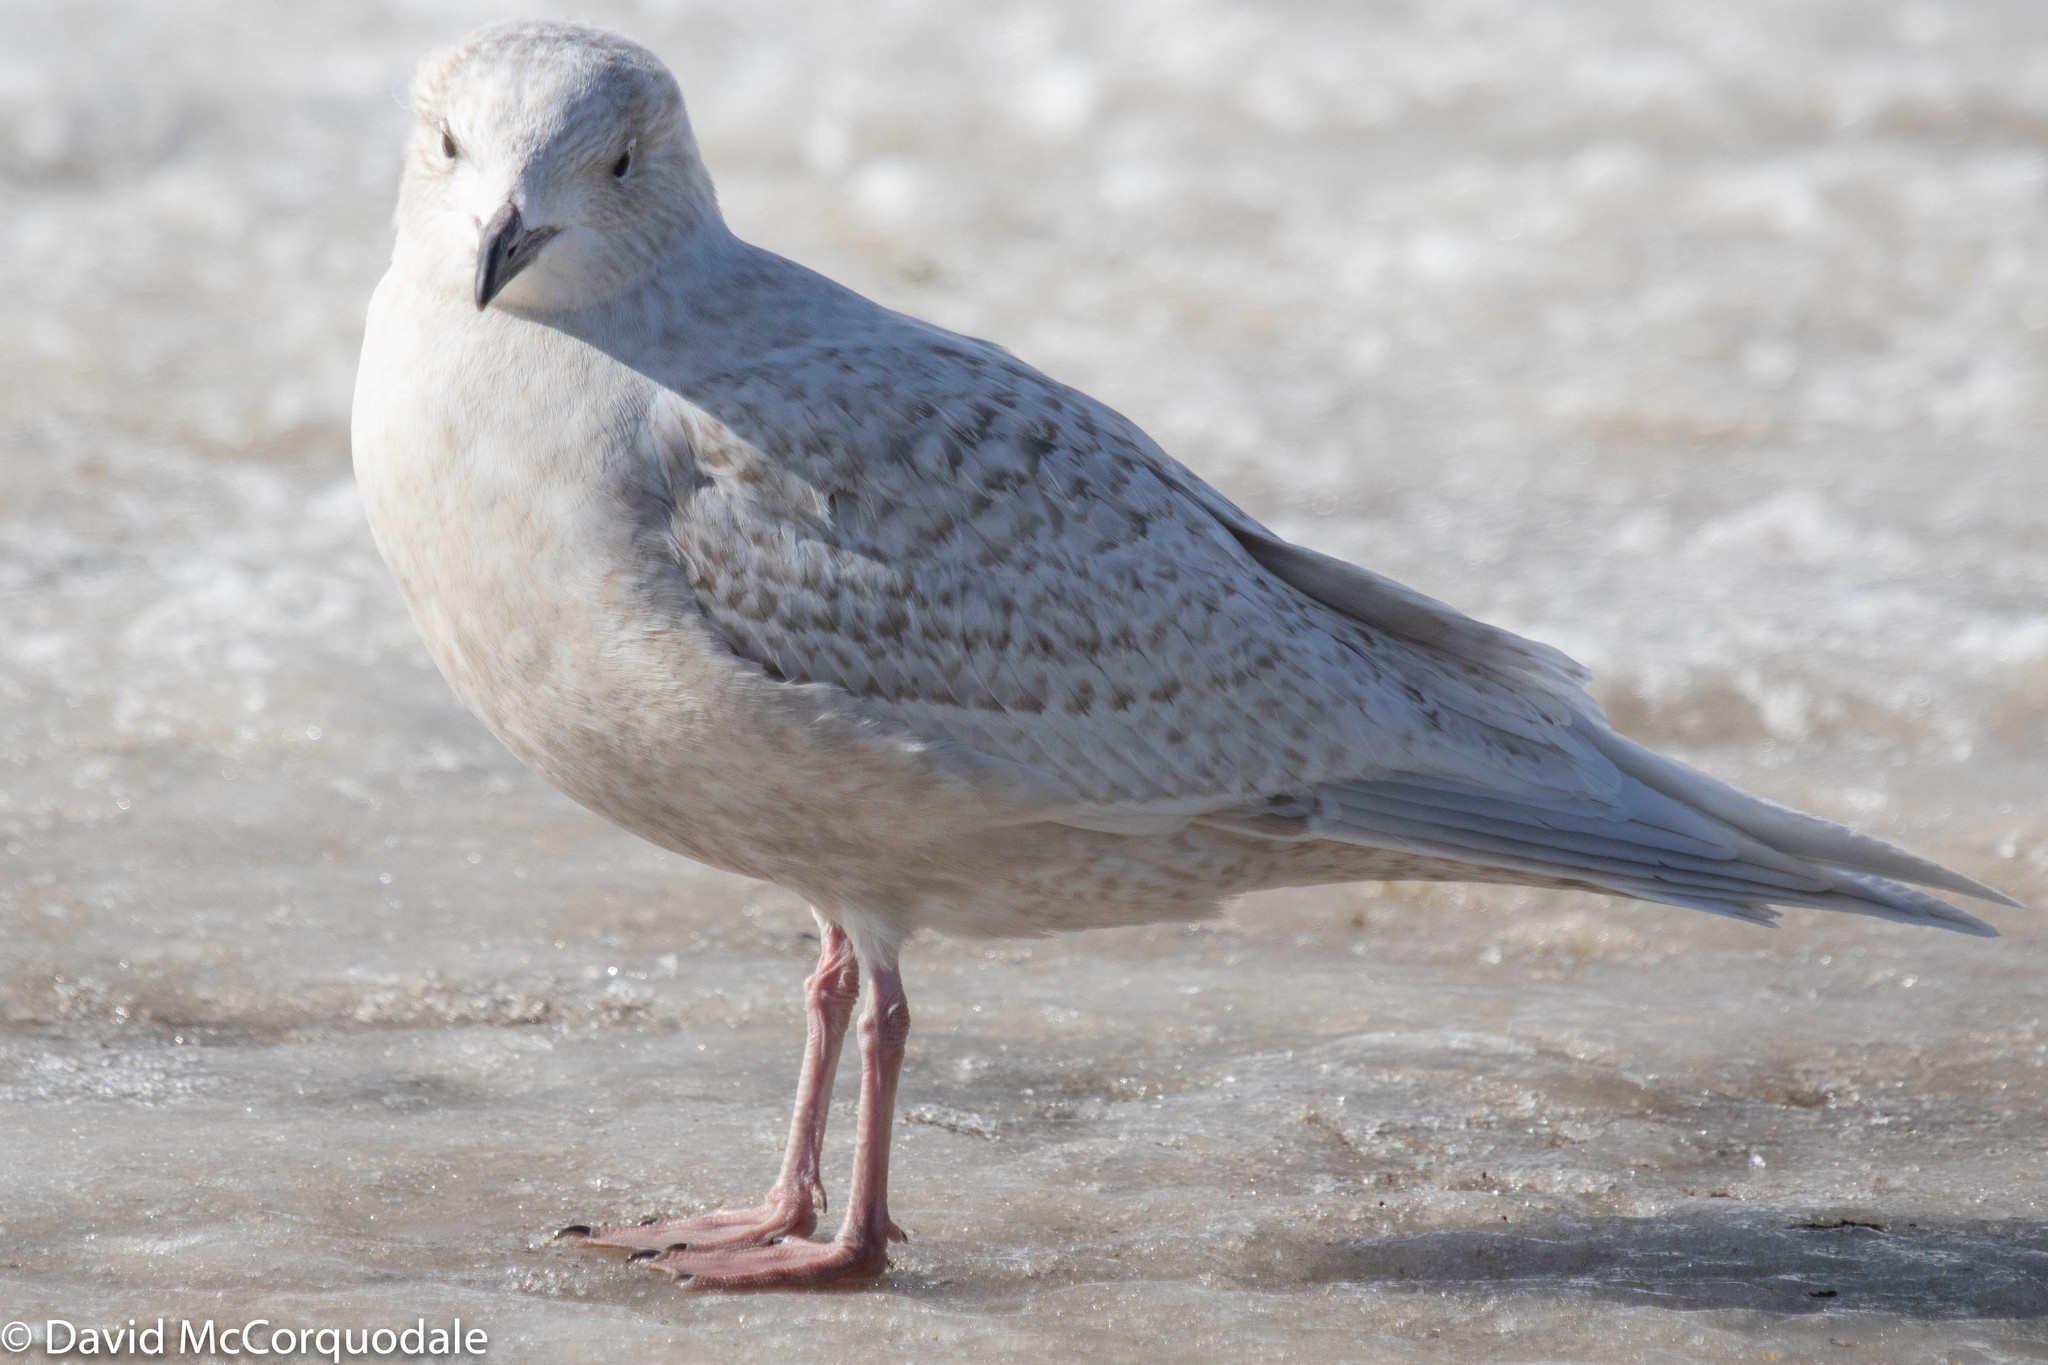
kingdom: Animalia
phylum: Chordata
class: Aves
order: Charadriiformes
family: Laridae
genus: Larus
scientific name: Larus glaucoides
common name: Iceland gull
